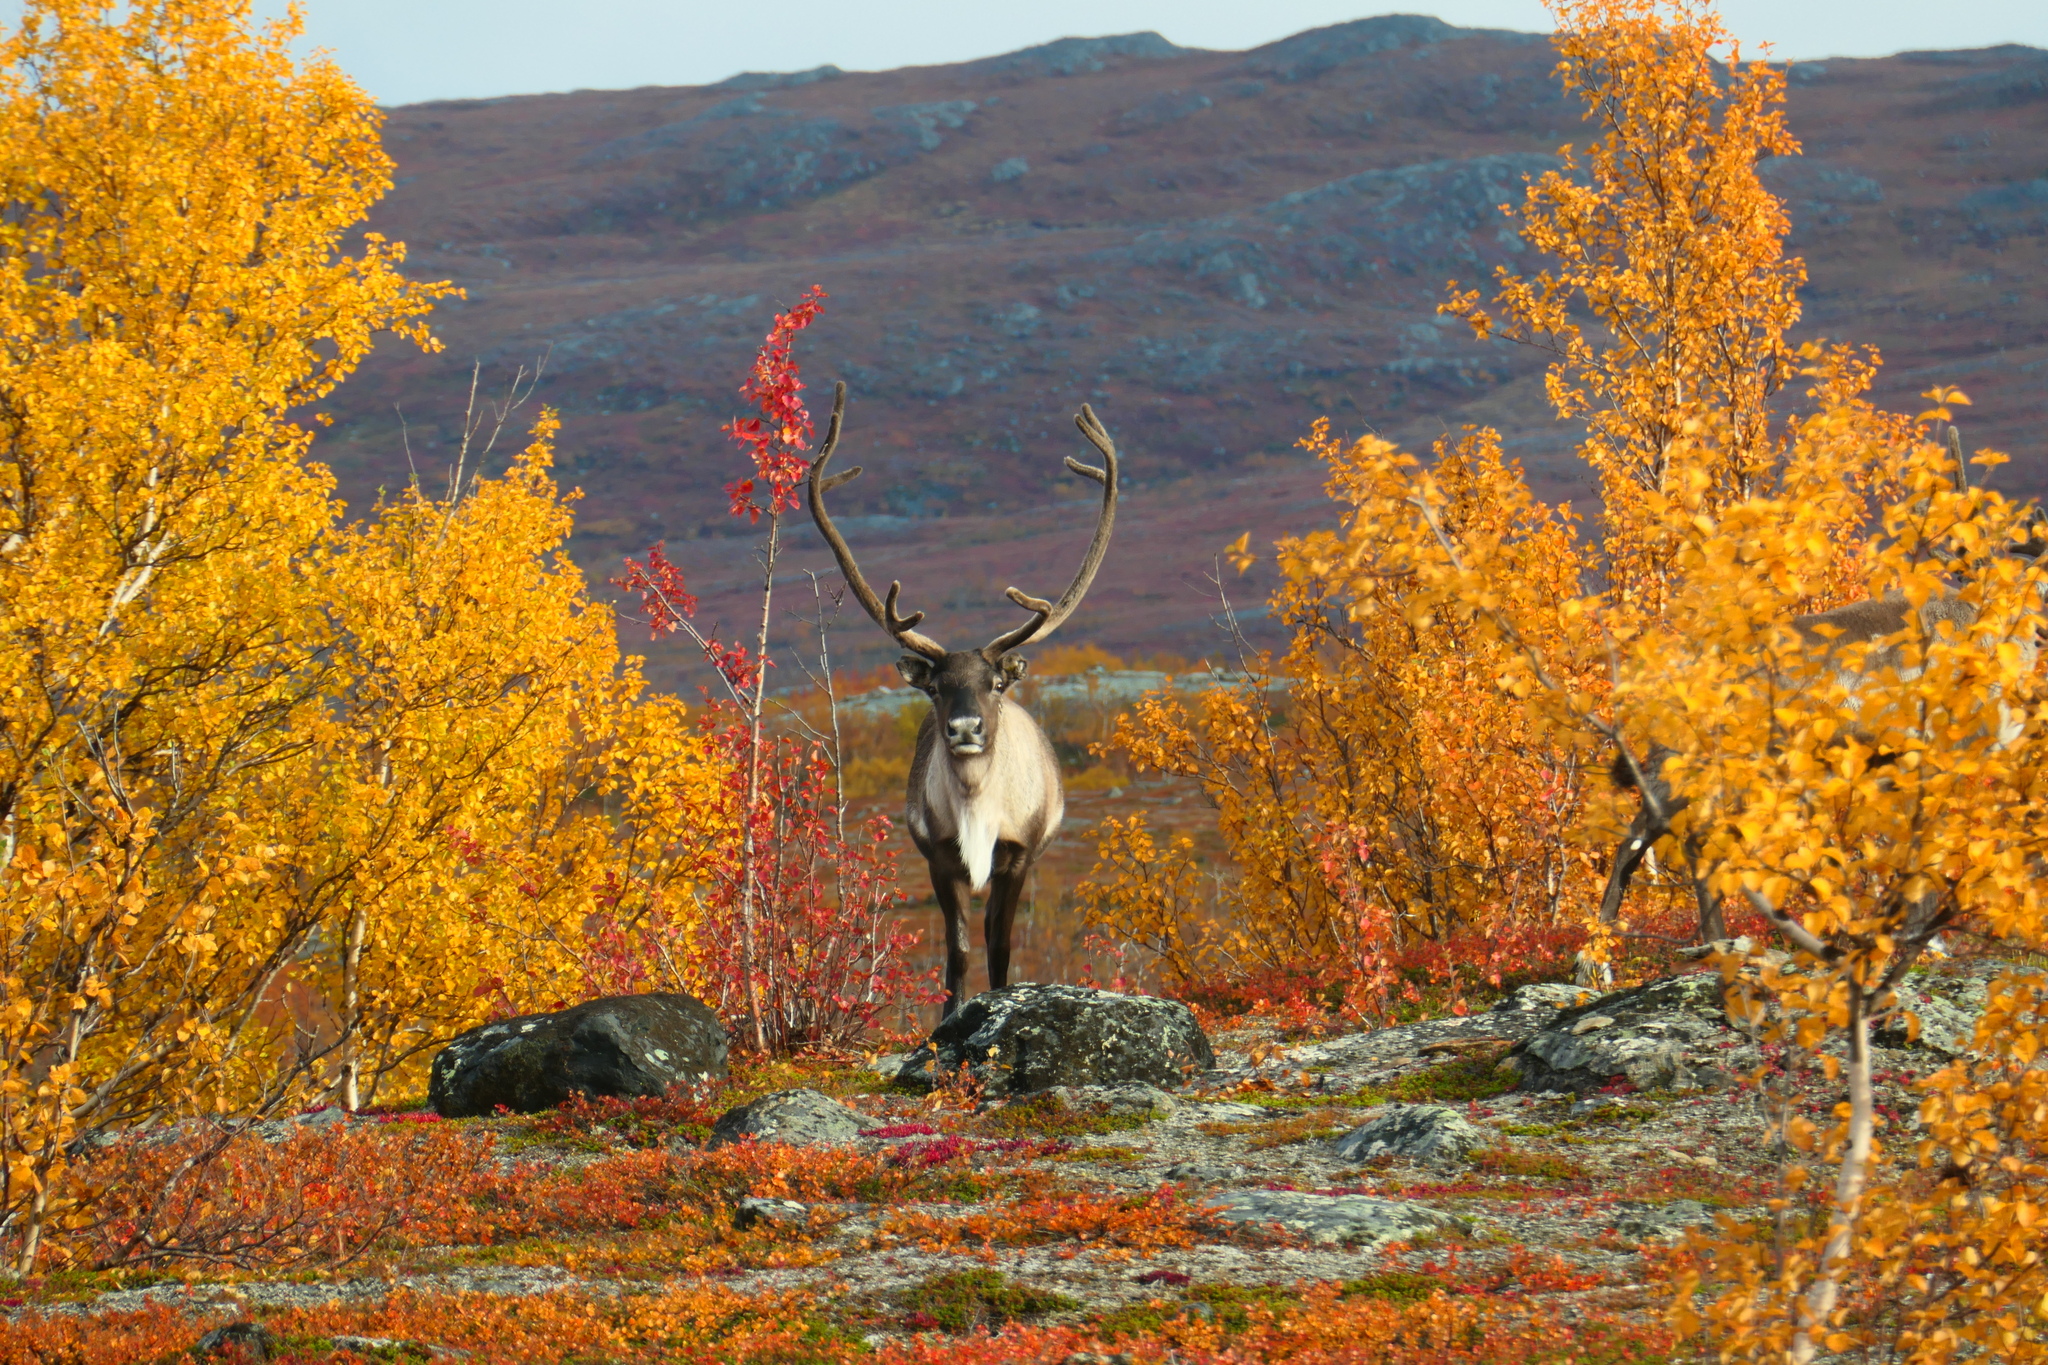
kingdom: Animalia
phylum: Chordata
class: Mammalia
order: Artiodactyla
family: Cervidae
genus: Rangifer
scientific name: Rangifer tarandus
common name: Reindeer
